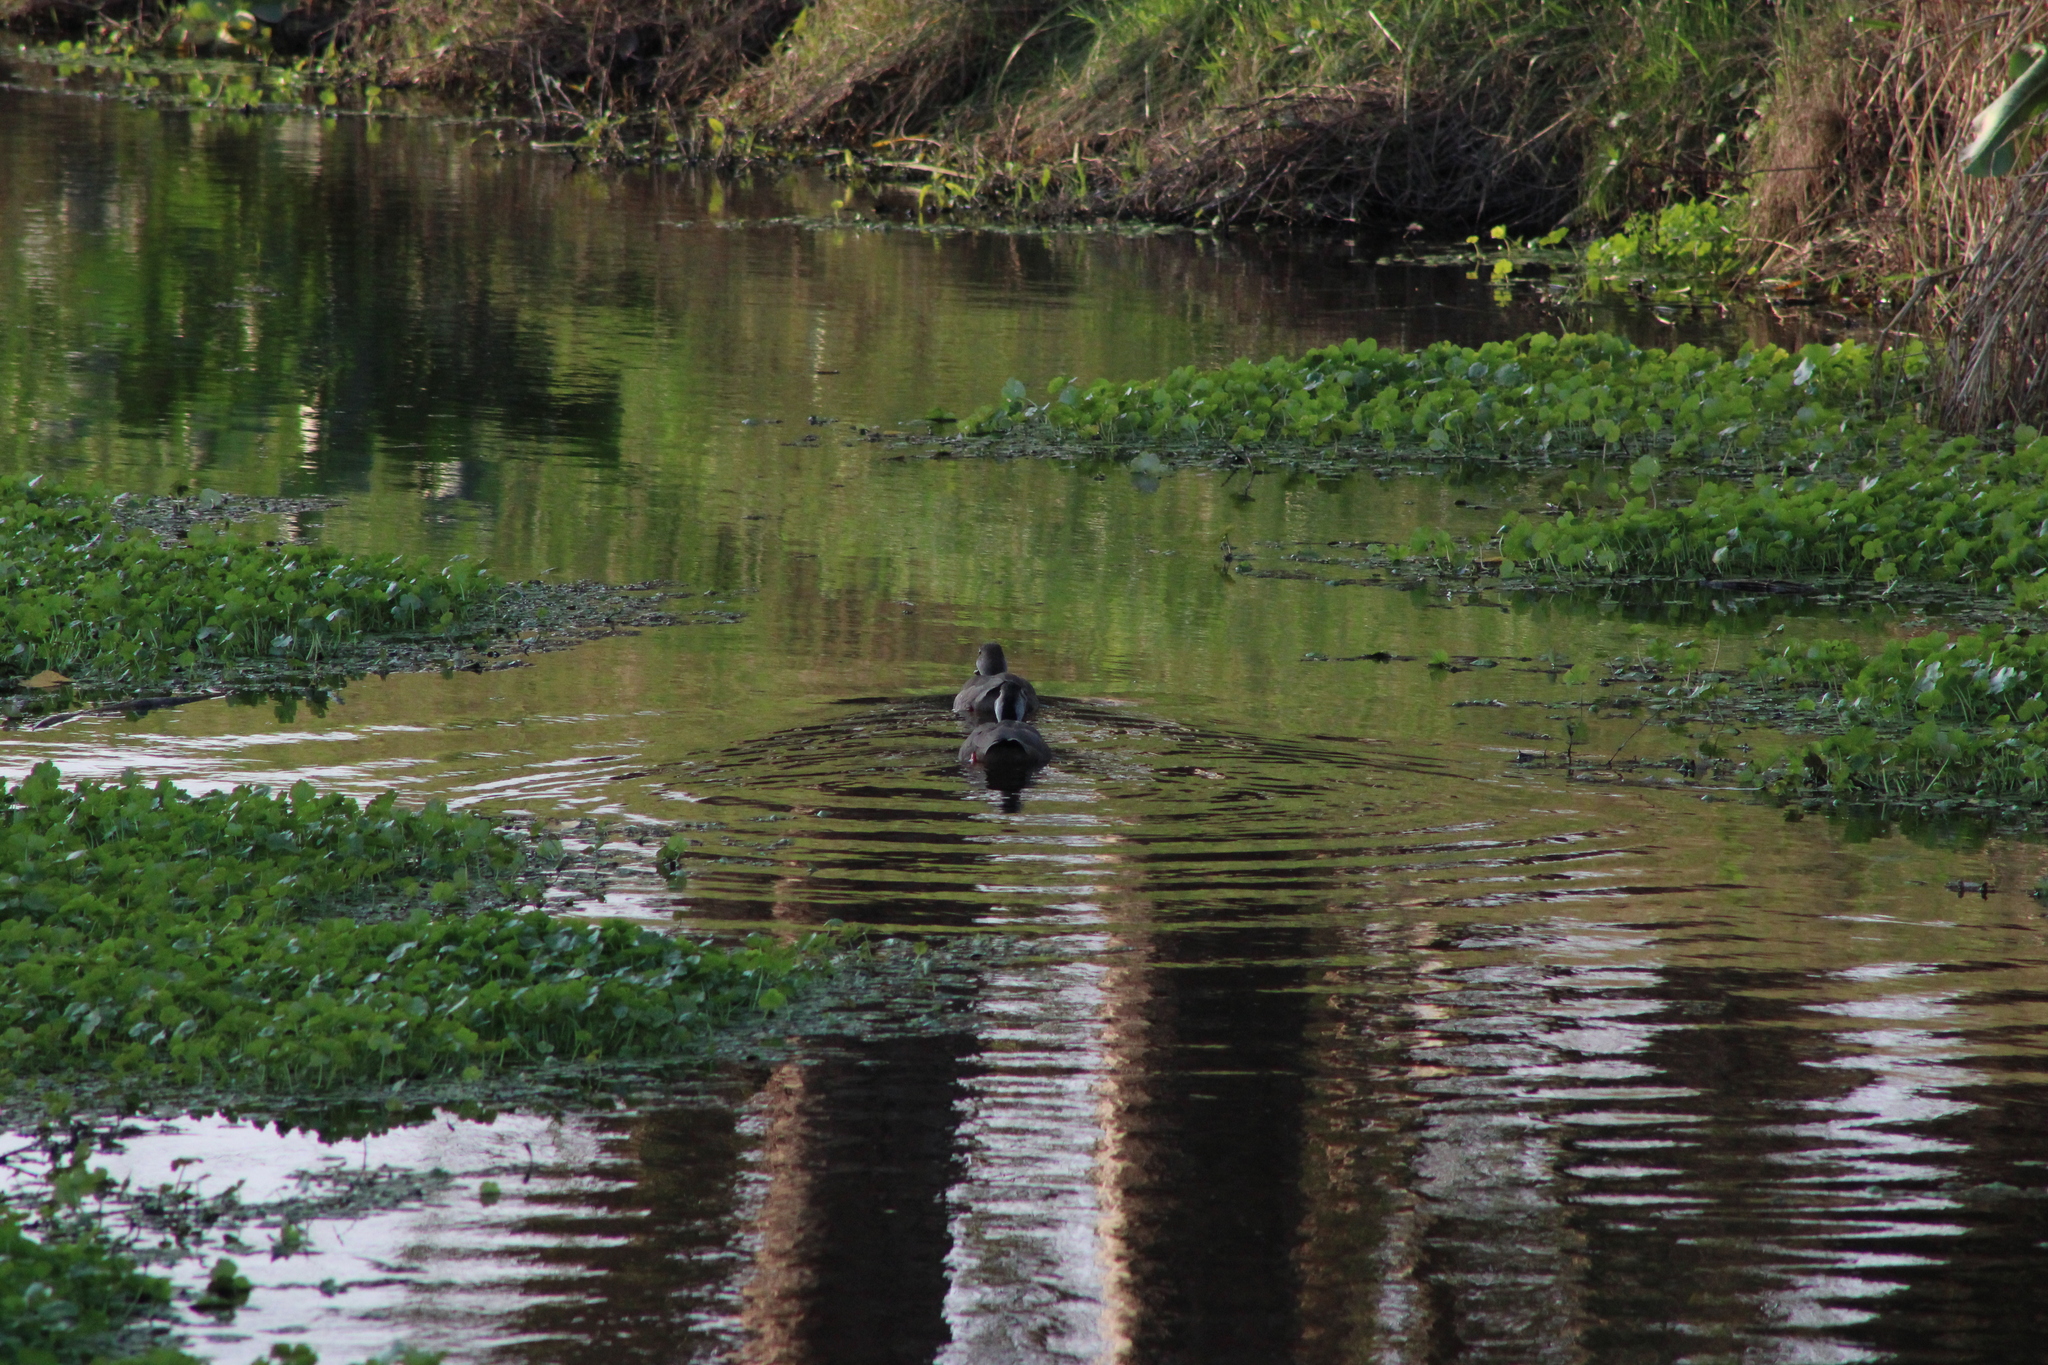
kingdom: Animalia
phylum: Chordata
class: Aves
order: Anseriformes
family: Anatidae
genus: Amazonetta
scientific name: Amazonetta brasiliensis
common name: Brazilian teal
